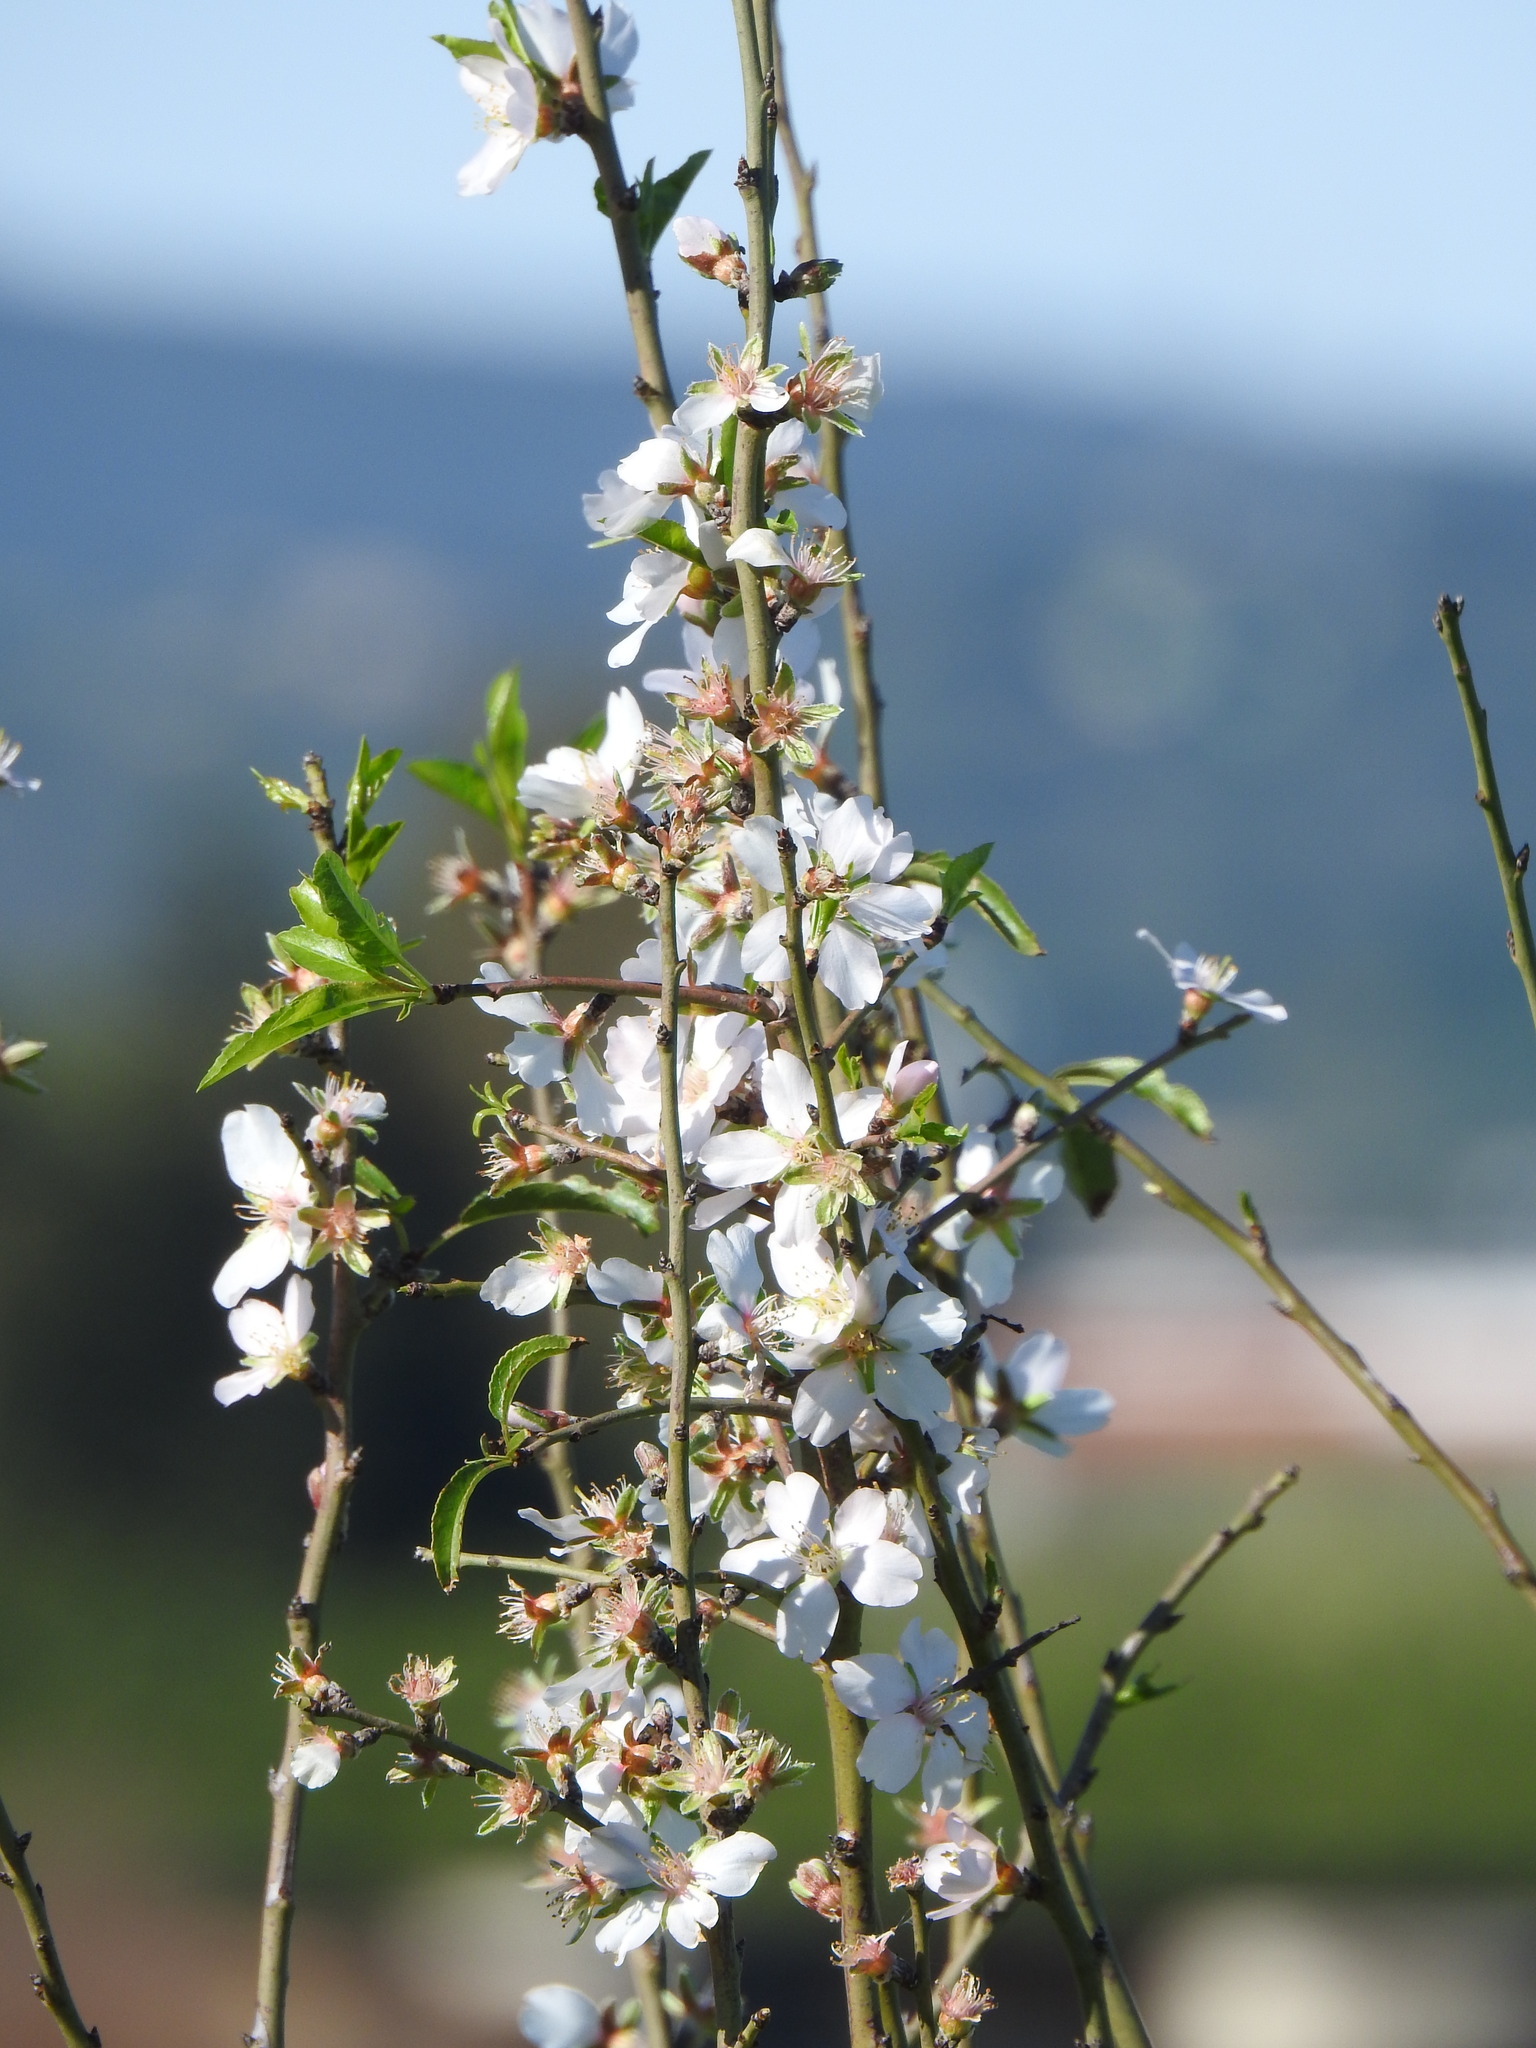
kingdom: Plantae
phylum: Tracheophyta
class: Magnoliopsida
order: Rosales
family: Rosaceae
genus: Prunus
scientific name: Prunus amygdalus
